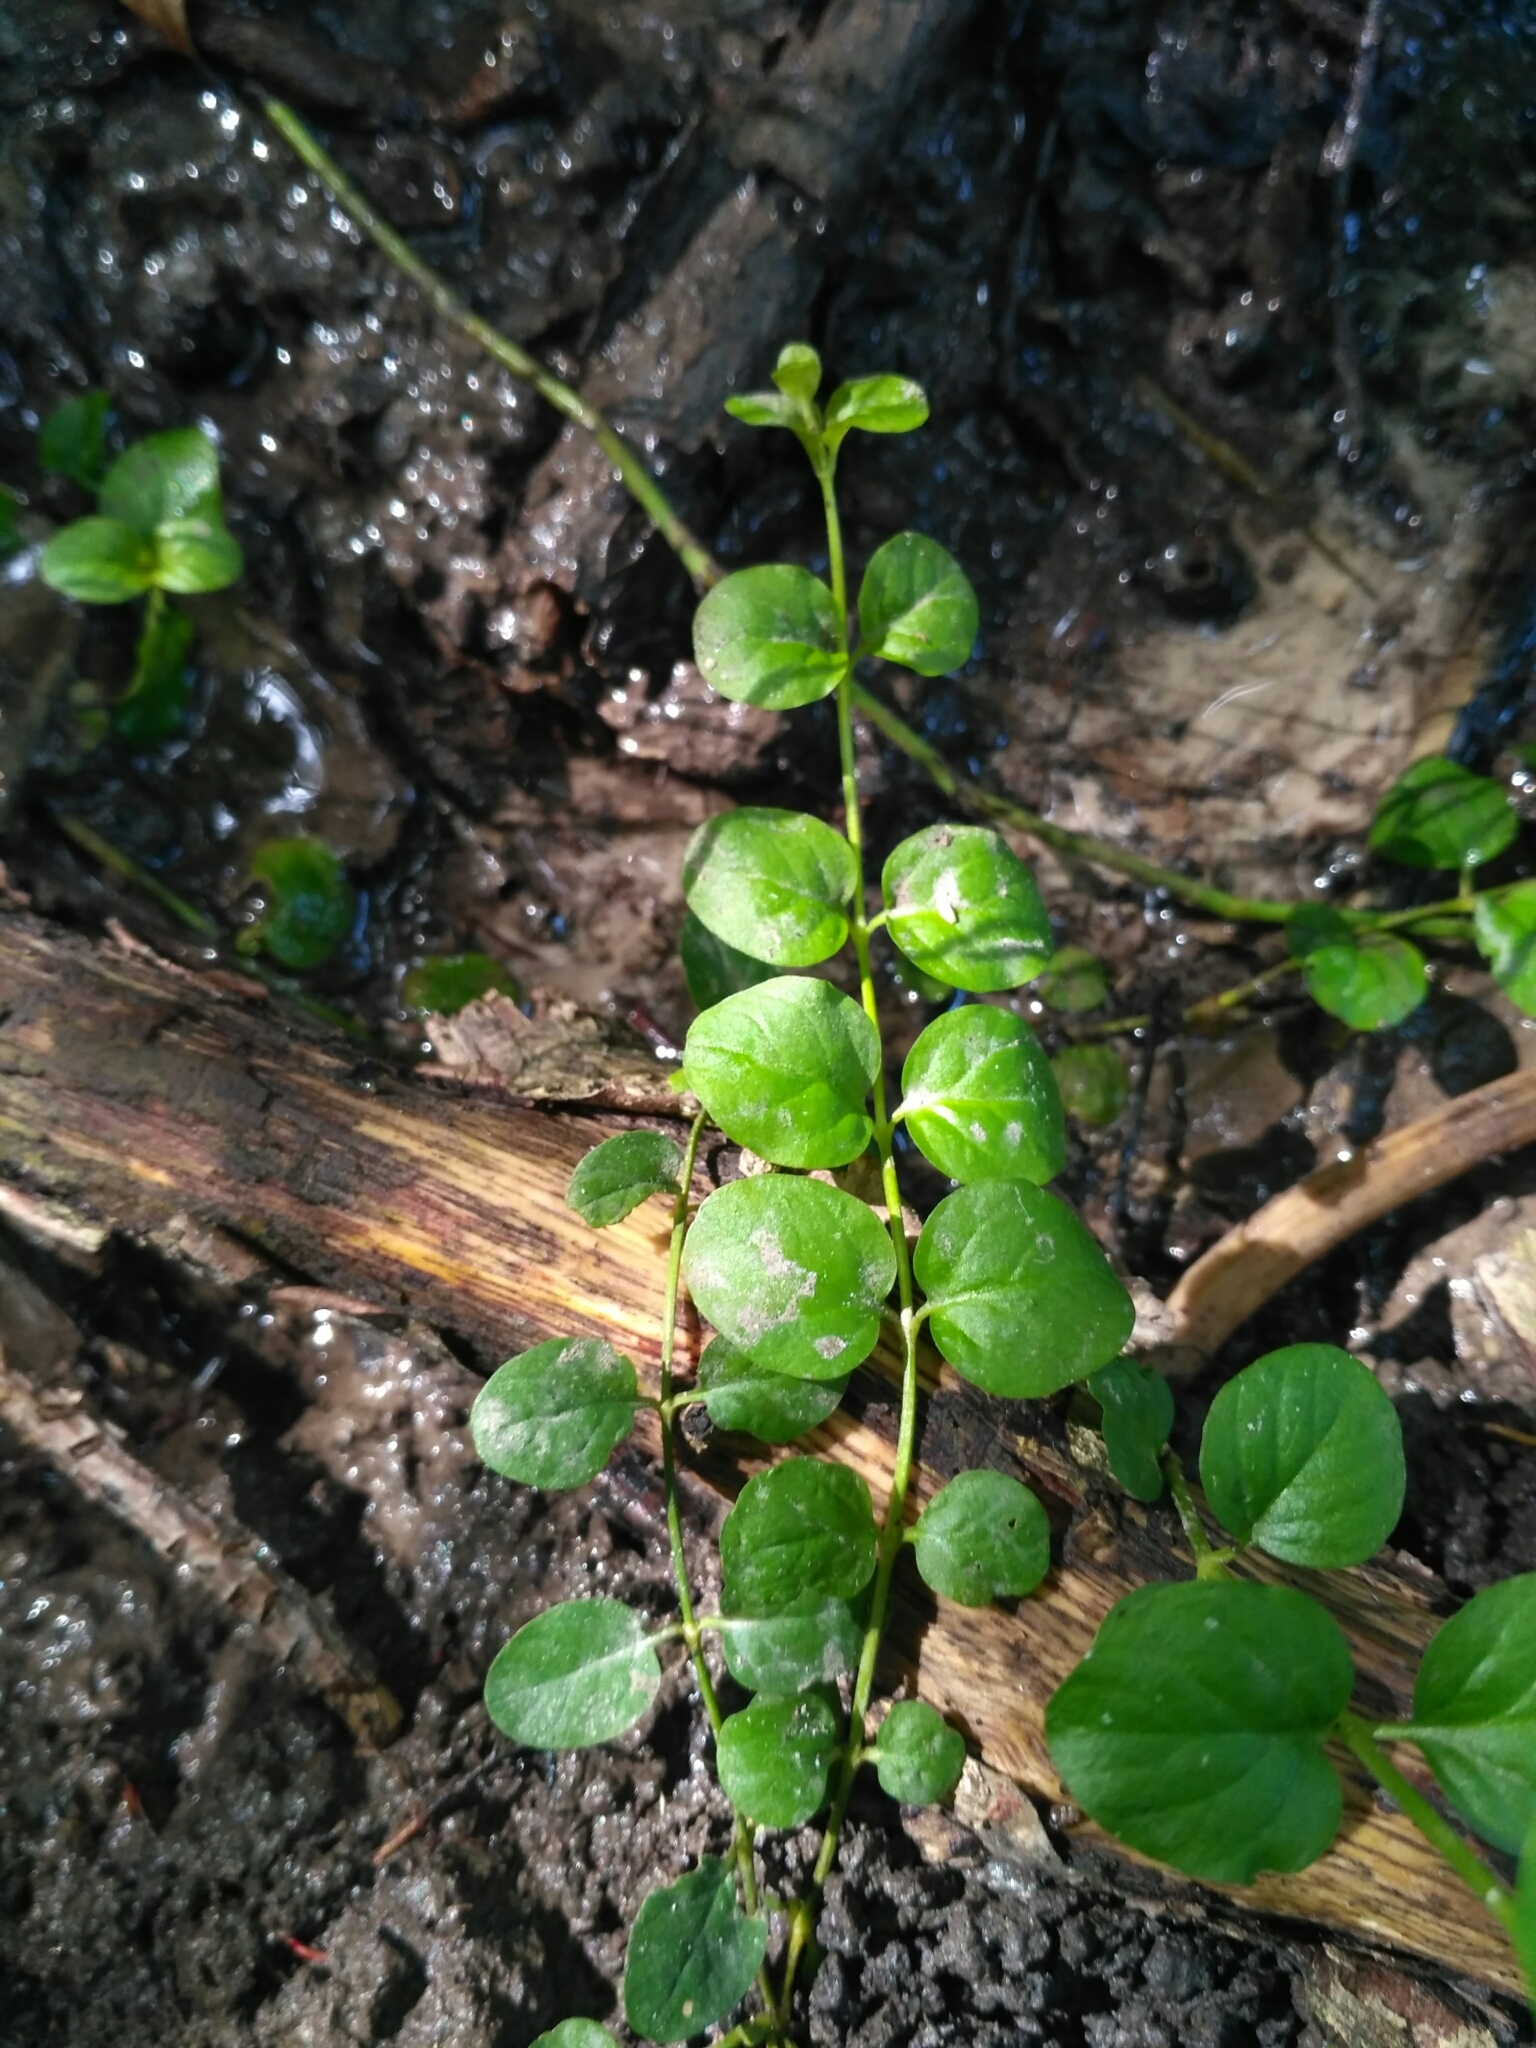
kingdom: Plantae
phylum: Tracheophyta
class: Magnoliopsida
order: Ericales
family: Primulaceae
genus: Lysimachia
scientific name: Lysimachia nummularia
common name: Moneywort
